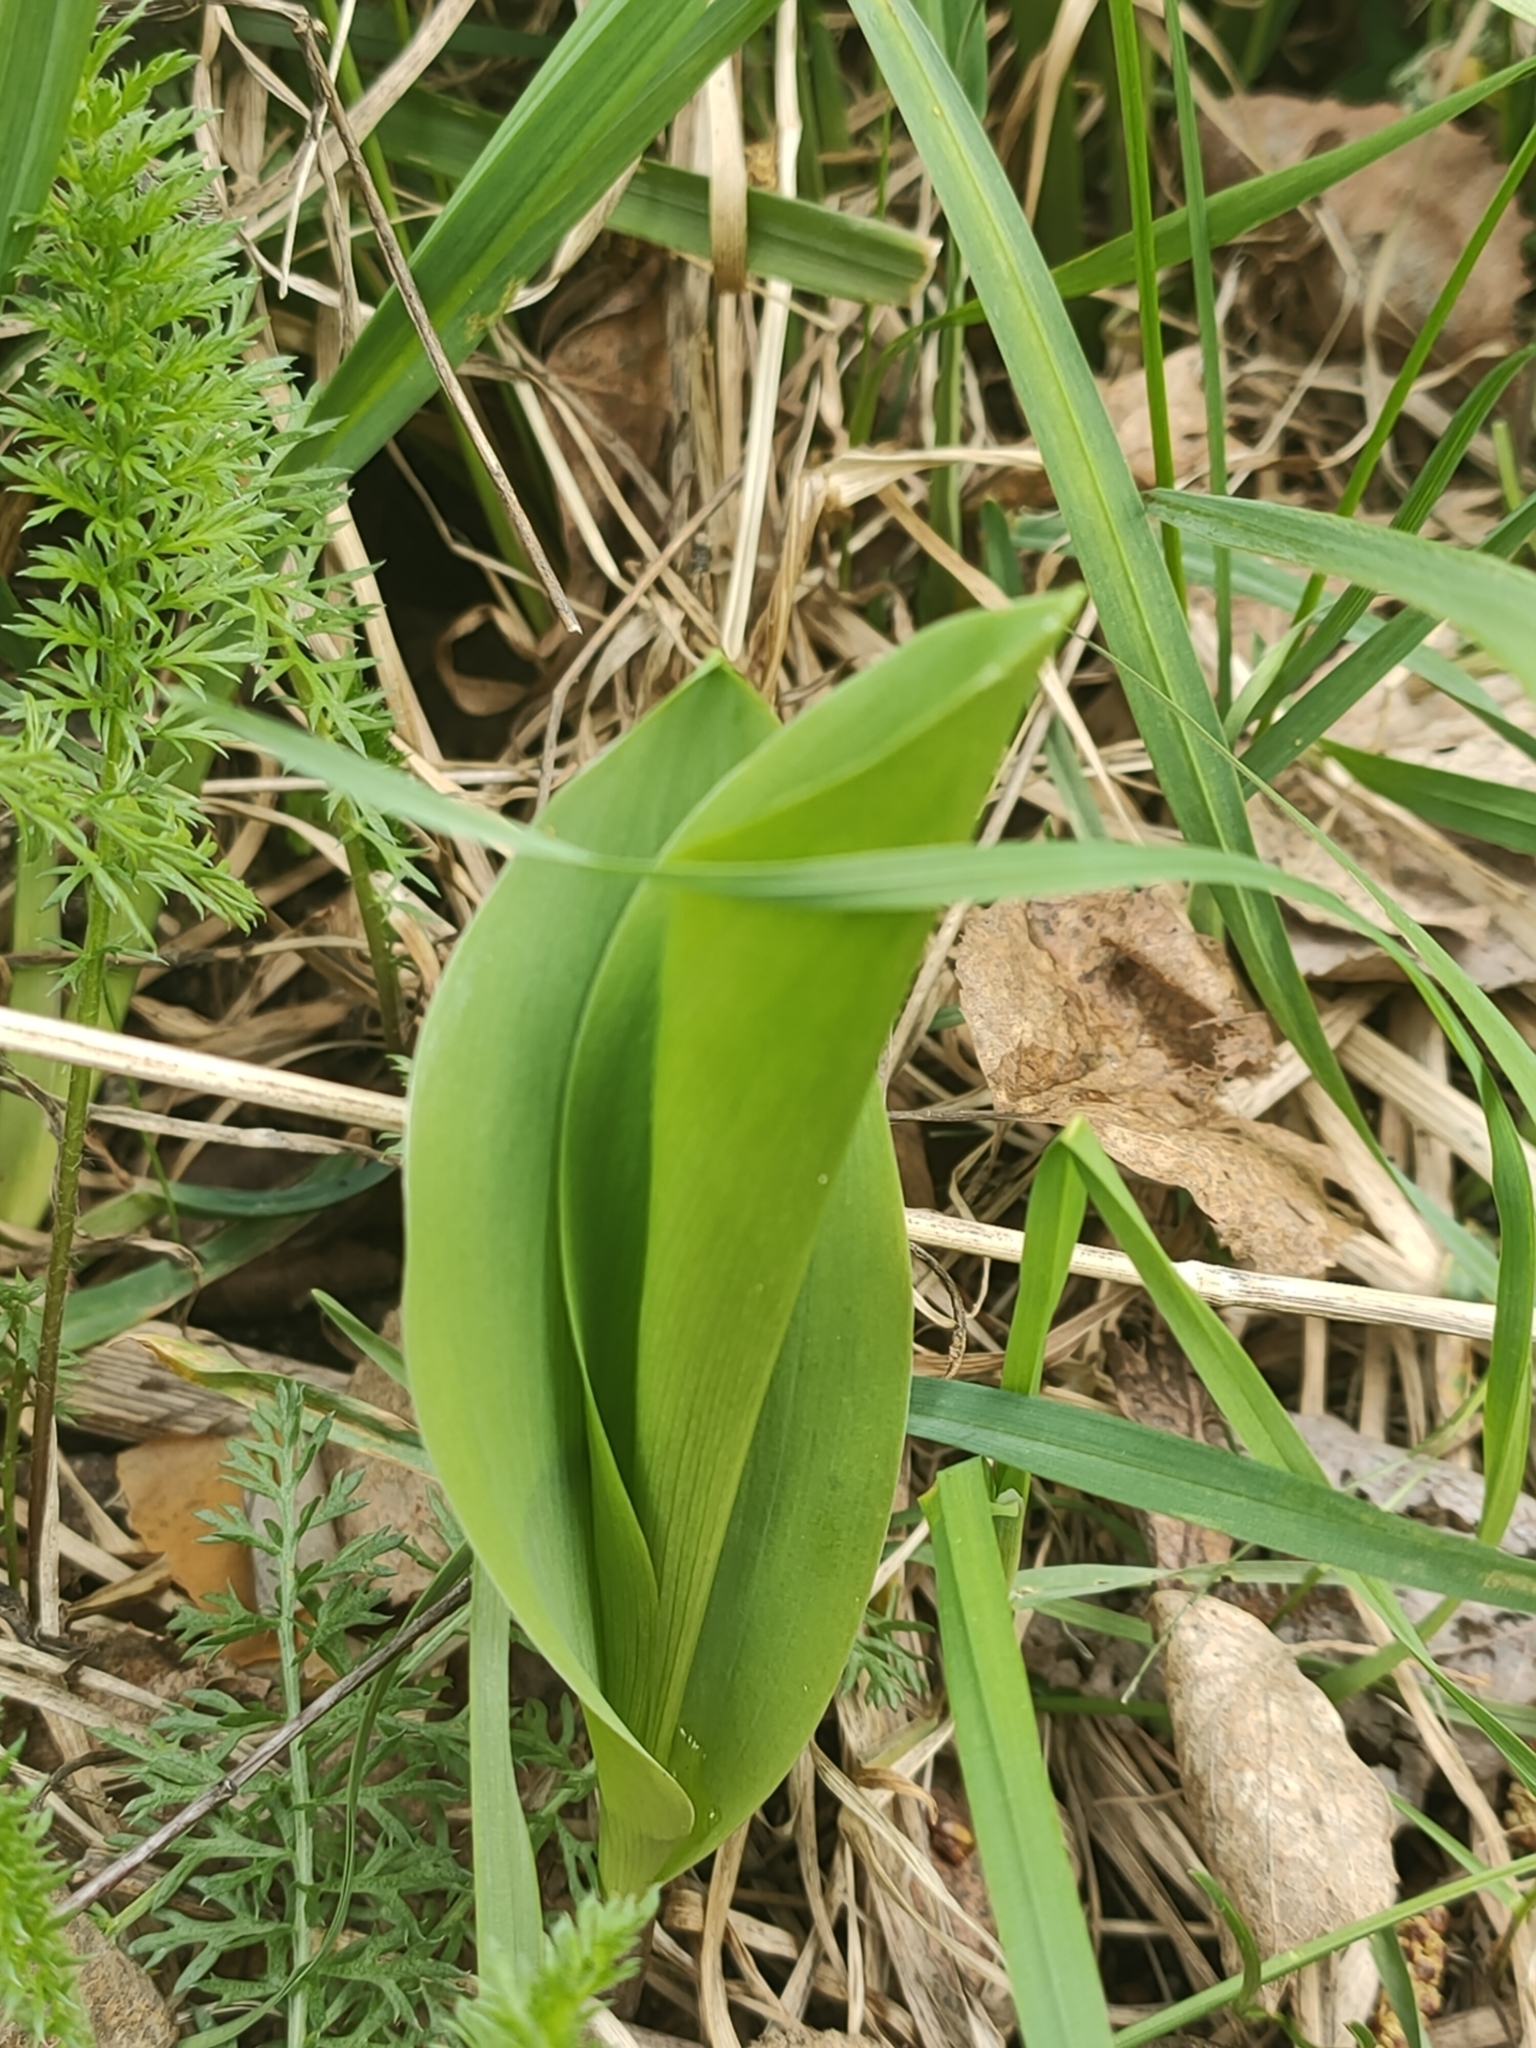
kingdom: Plantae
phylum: Tracheophyta
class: Liliopsida
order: Asparagales
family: Asparagaceae
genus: Convallaria
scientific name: Convallaria majalis
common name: Lily-of-the-valley
